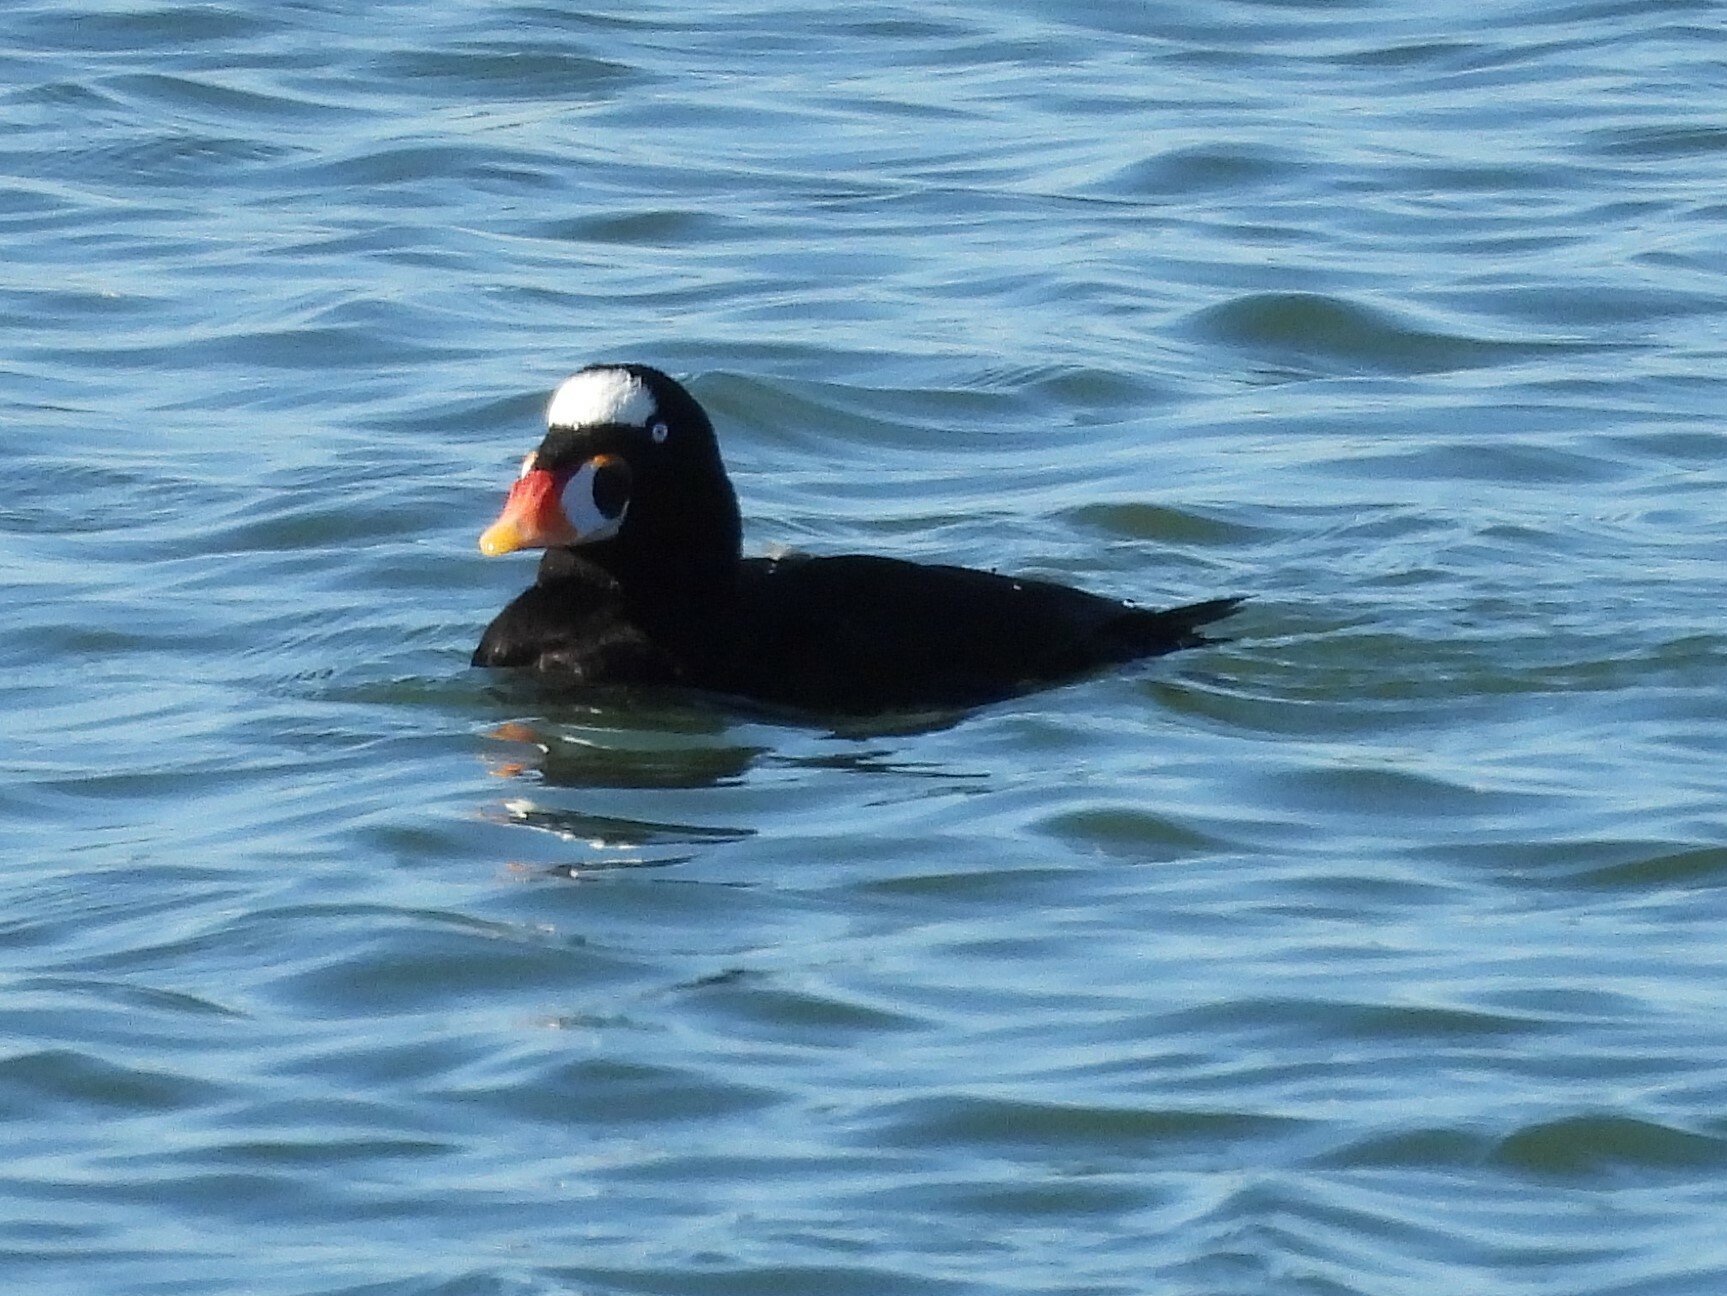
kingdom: Animalia
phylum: Chordata
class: Aves
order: Anseriformes
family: Anatidae
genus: Melanitta
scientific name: Melanitta perspicillata
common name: Surf scoter
